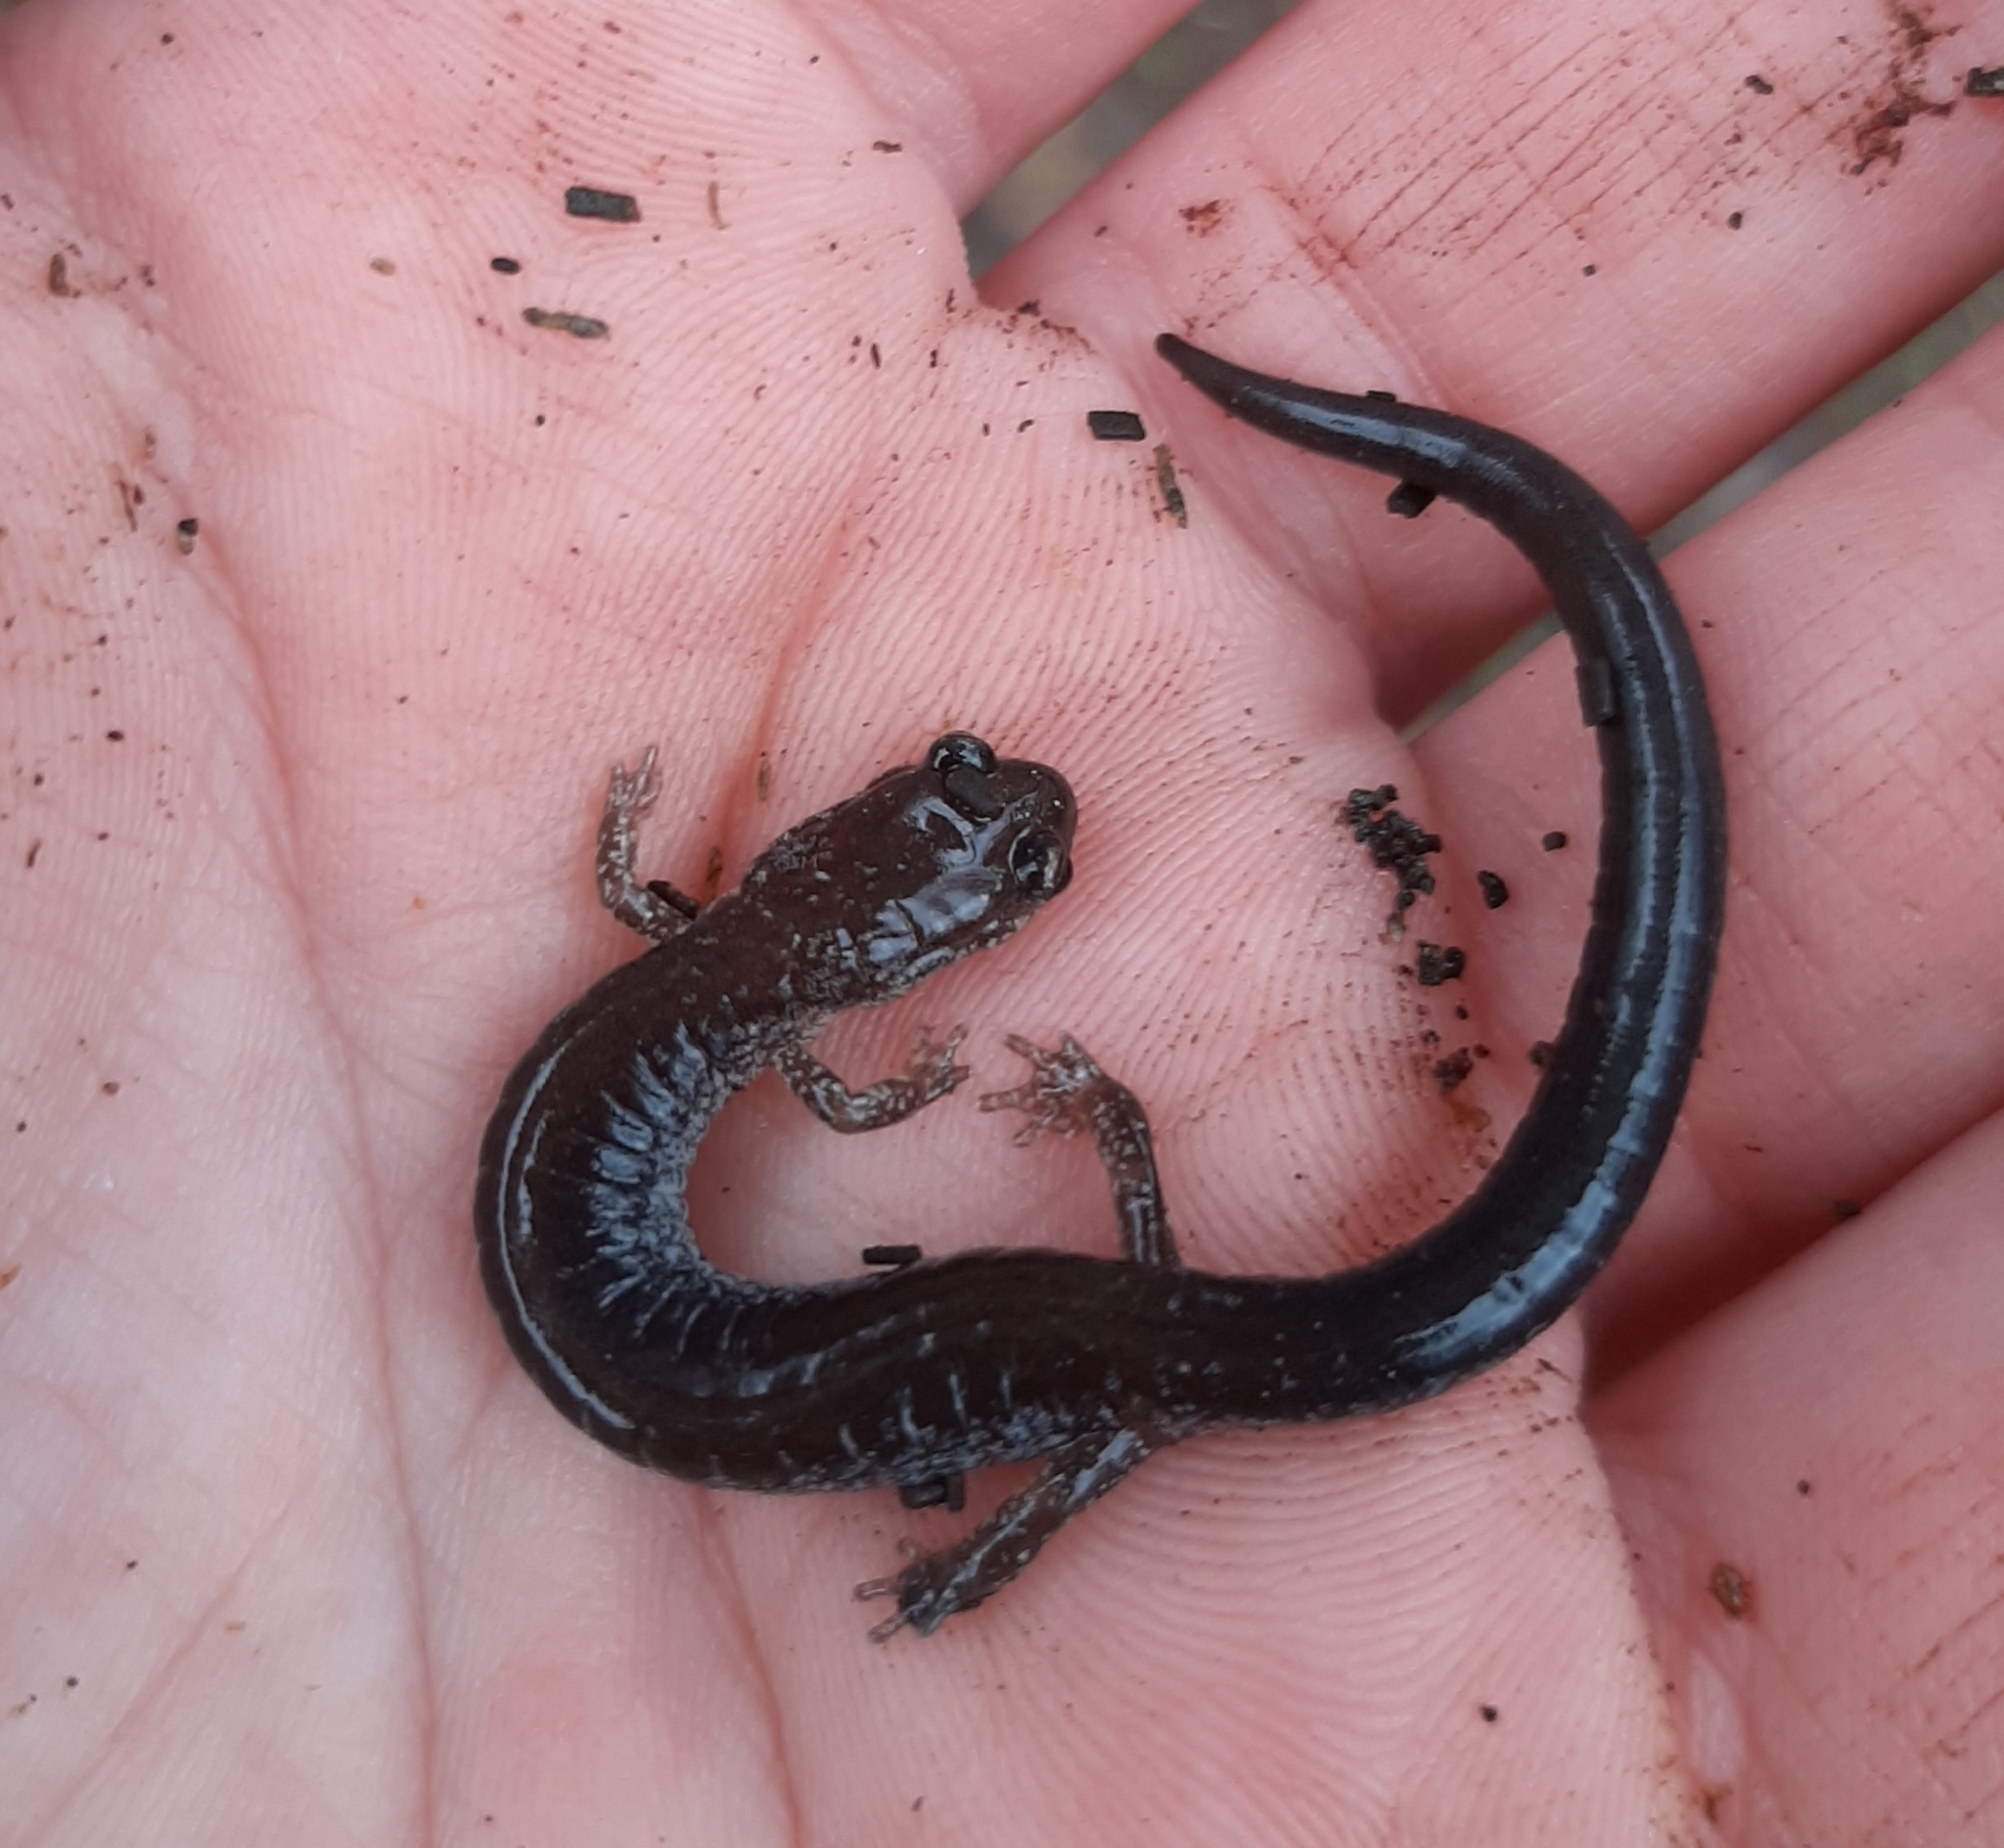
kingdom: Animalia
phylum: Chordata
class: Amphibia
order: Caudata
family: Plethodontidae
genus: Plethodon
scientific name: Plethodon cinereus
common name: Redback salamander
